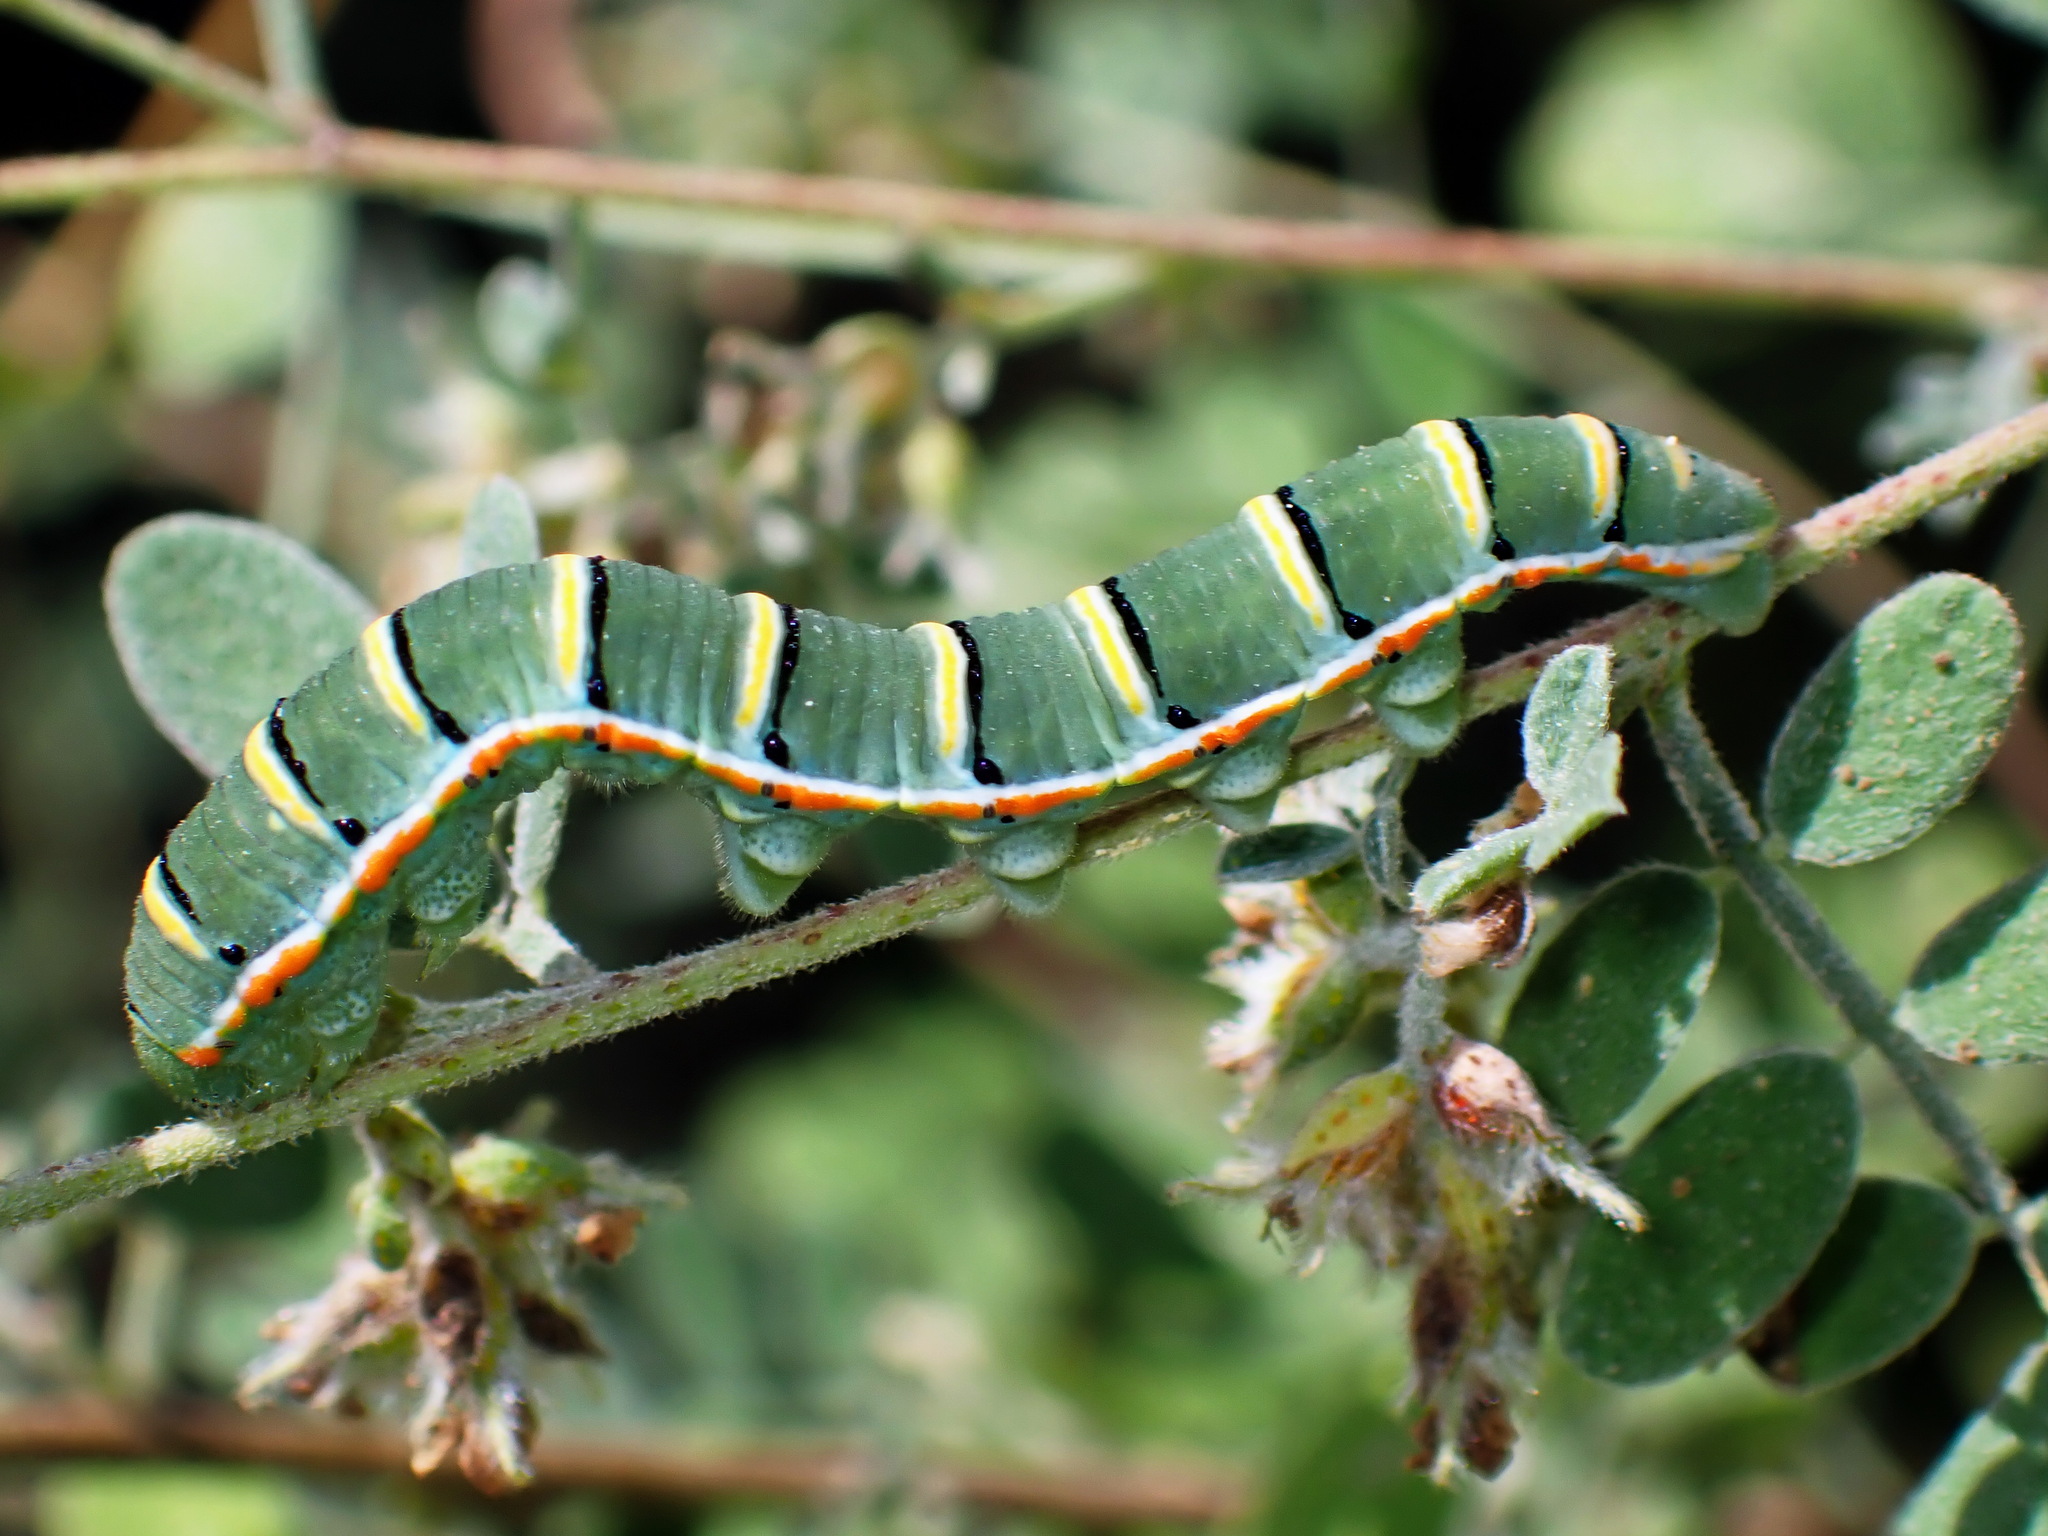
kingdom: Animalia
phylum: Arthropoda
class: Insecta
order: Lepidoptera
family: Pieridae
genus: Zerene
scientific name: Zerene cesonia
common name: Southern dogface
